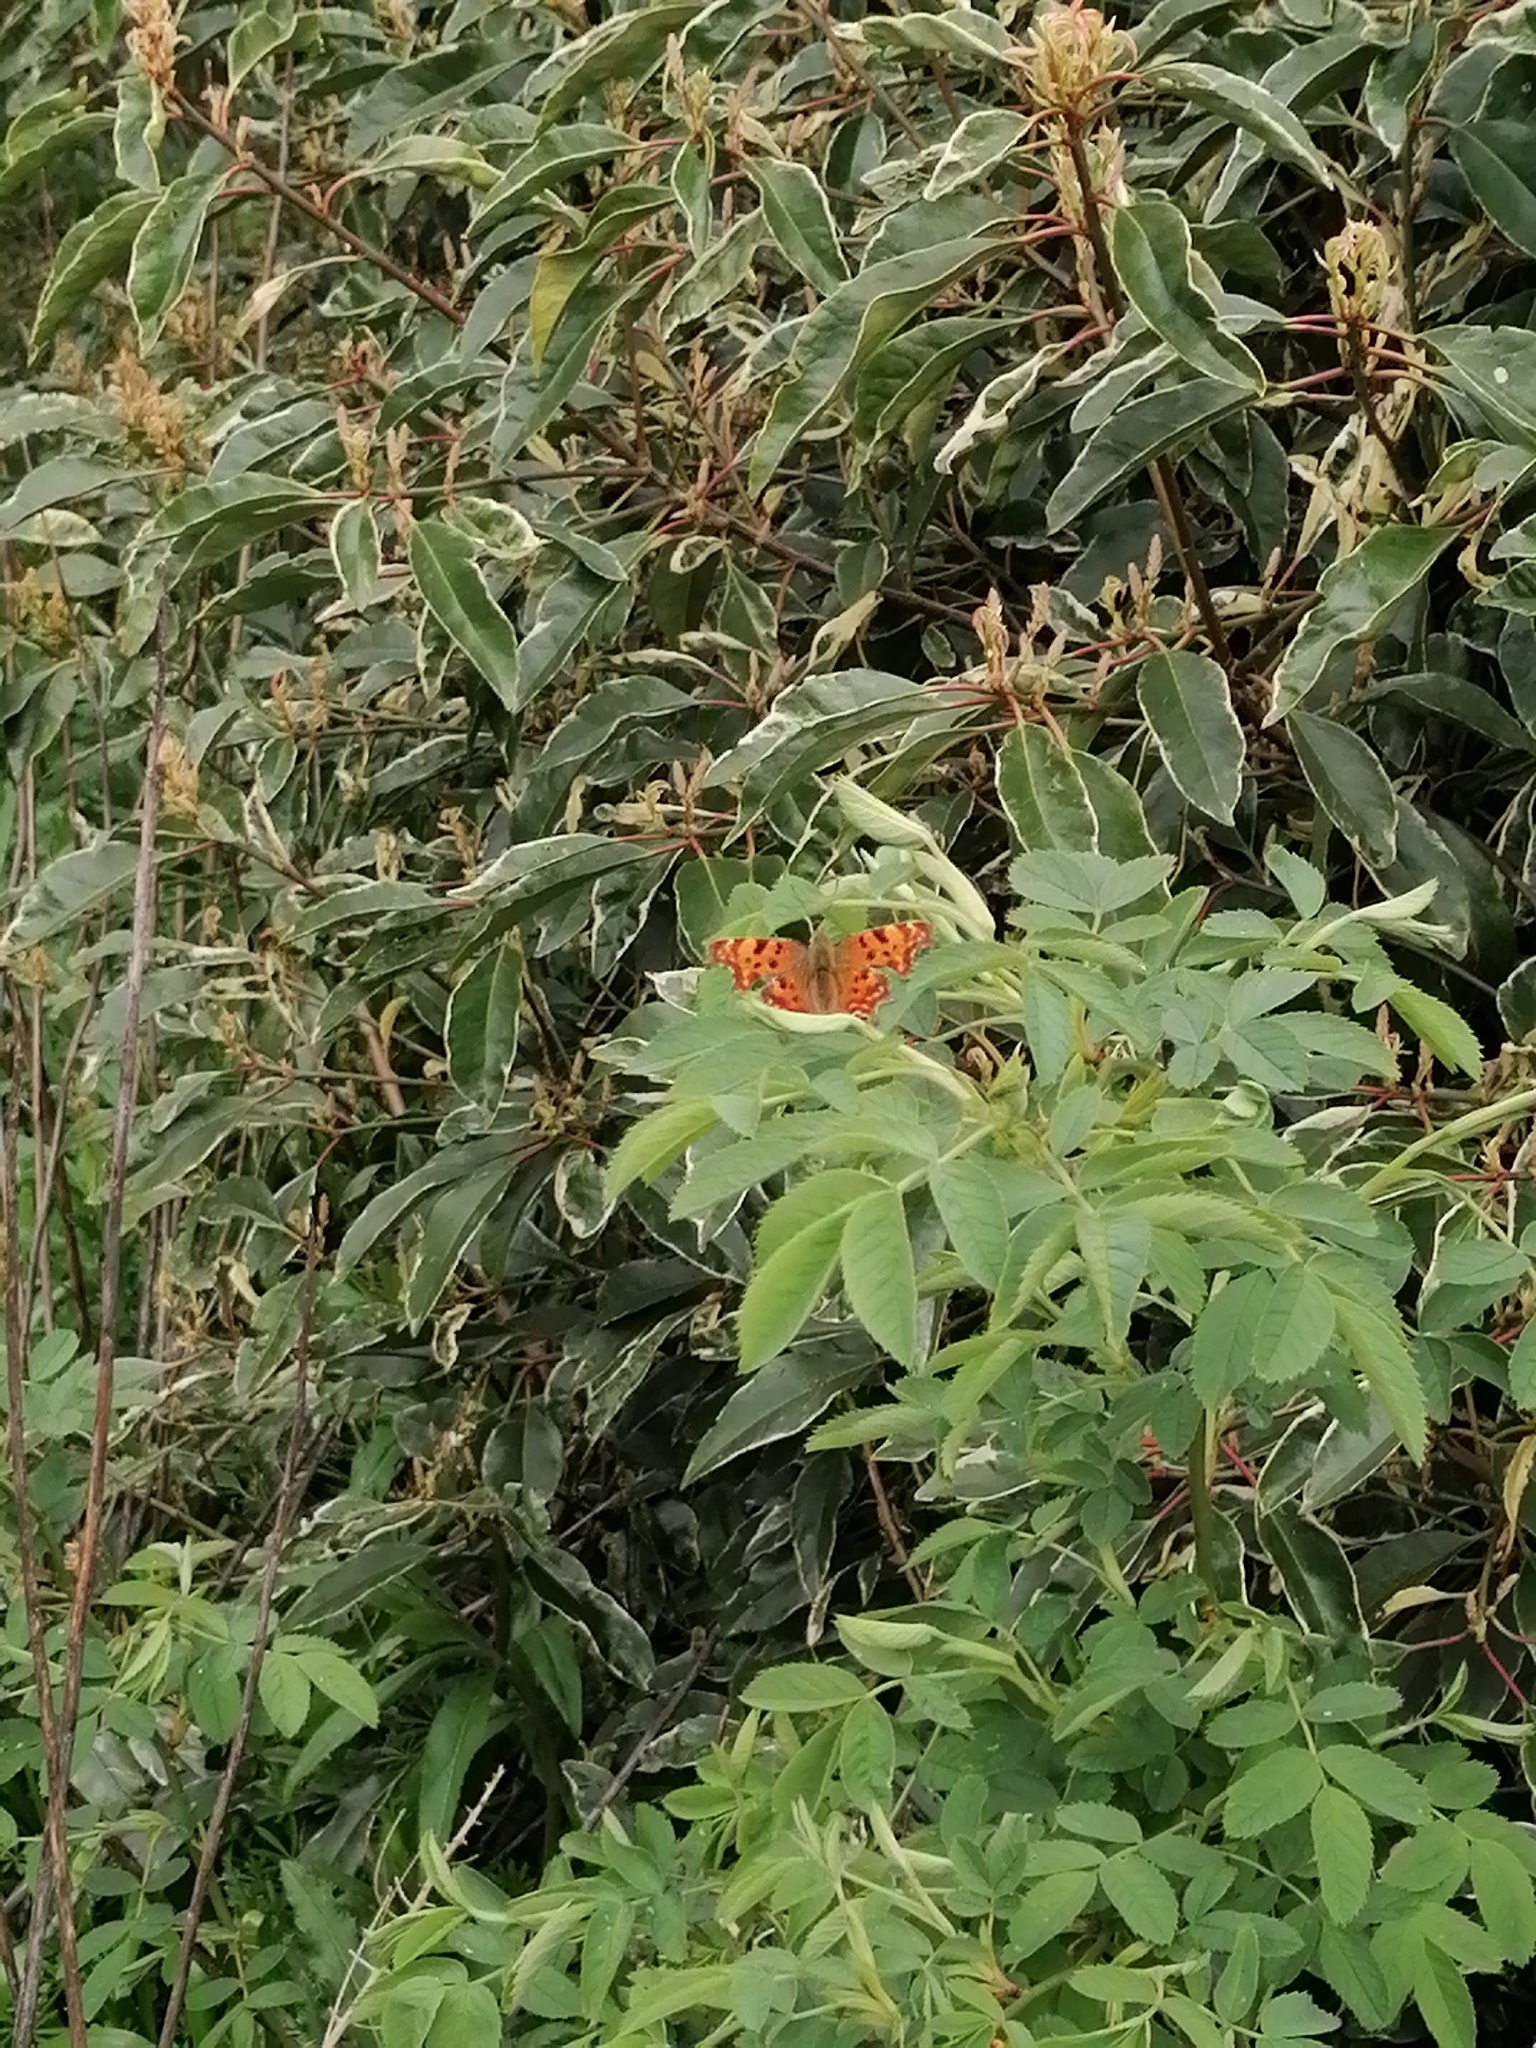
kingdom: Animalia
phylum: Arthropoda
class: Insecta
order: Lepidoptera
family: Nymphalidae
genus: Polygonia
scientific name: Polygonia c-album
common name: Comma
